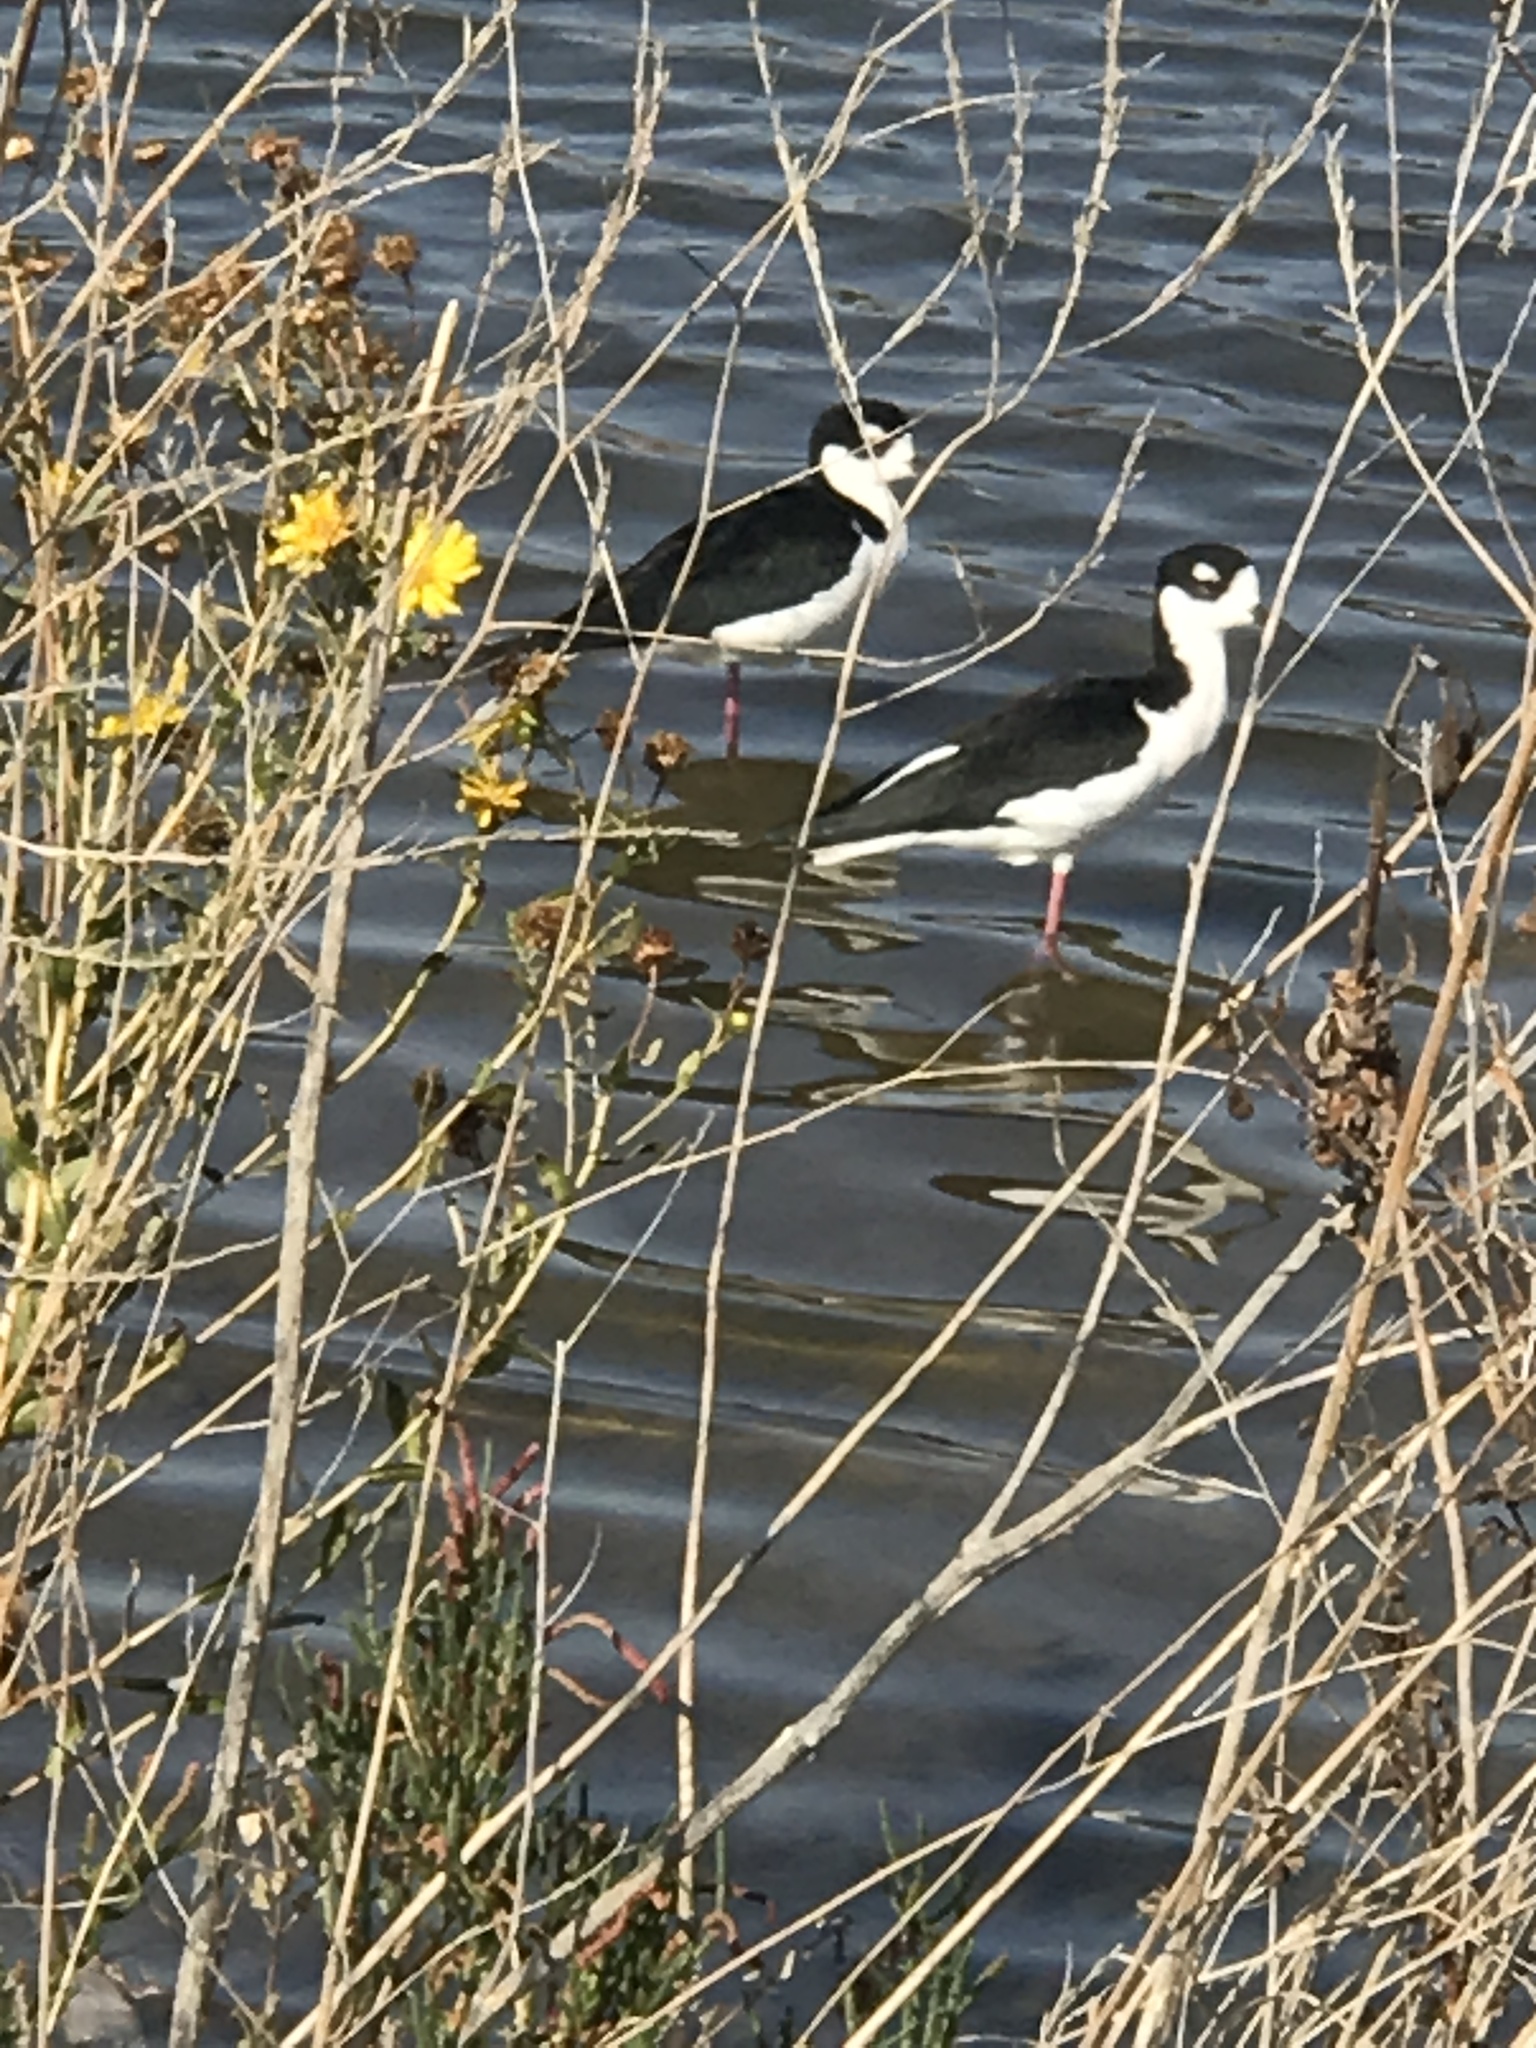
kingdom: Animalia
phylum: Chordata
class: Aves
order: Charadriiformes
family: Recurvirostridae
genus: Himantopus
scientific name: Himantopus mexicanus
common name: Black-necked stilt
